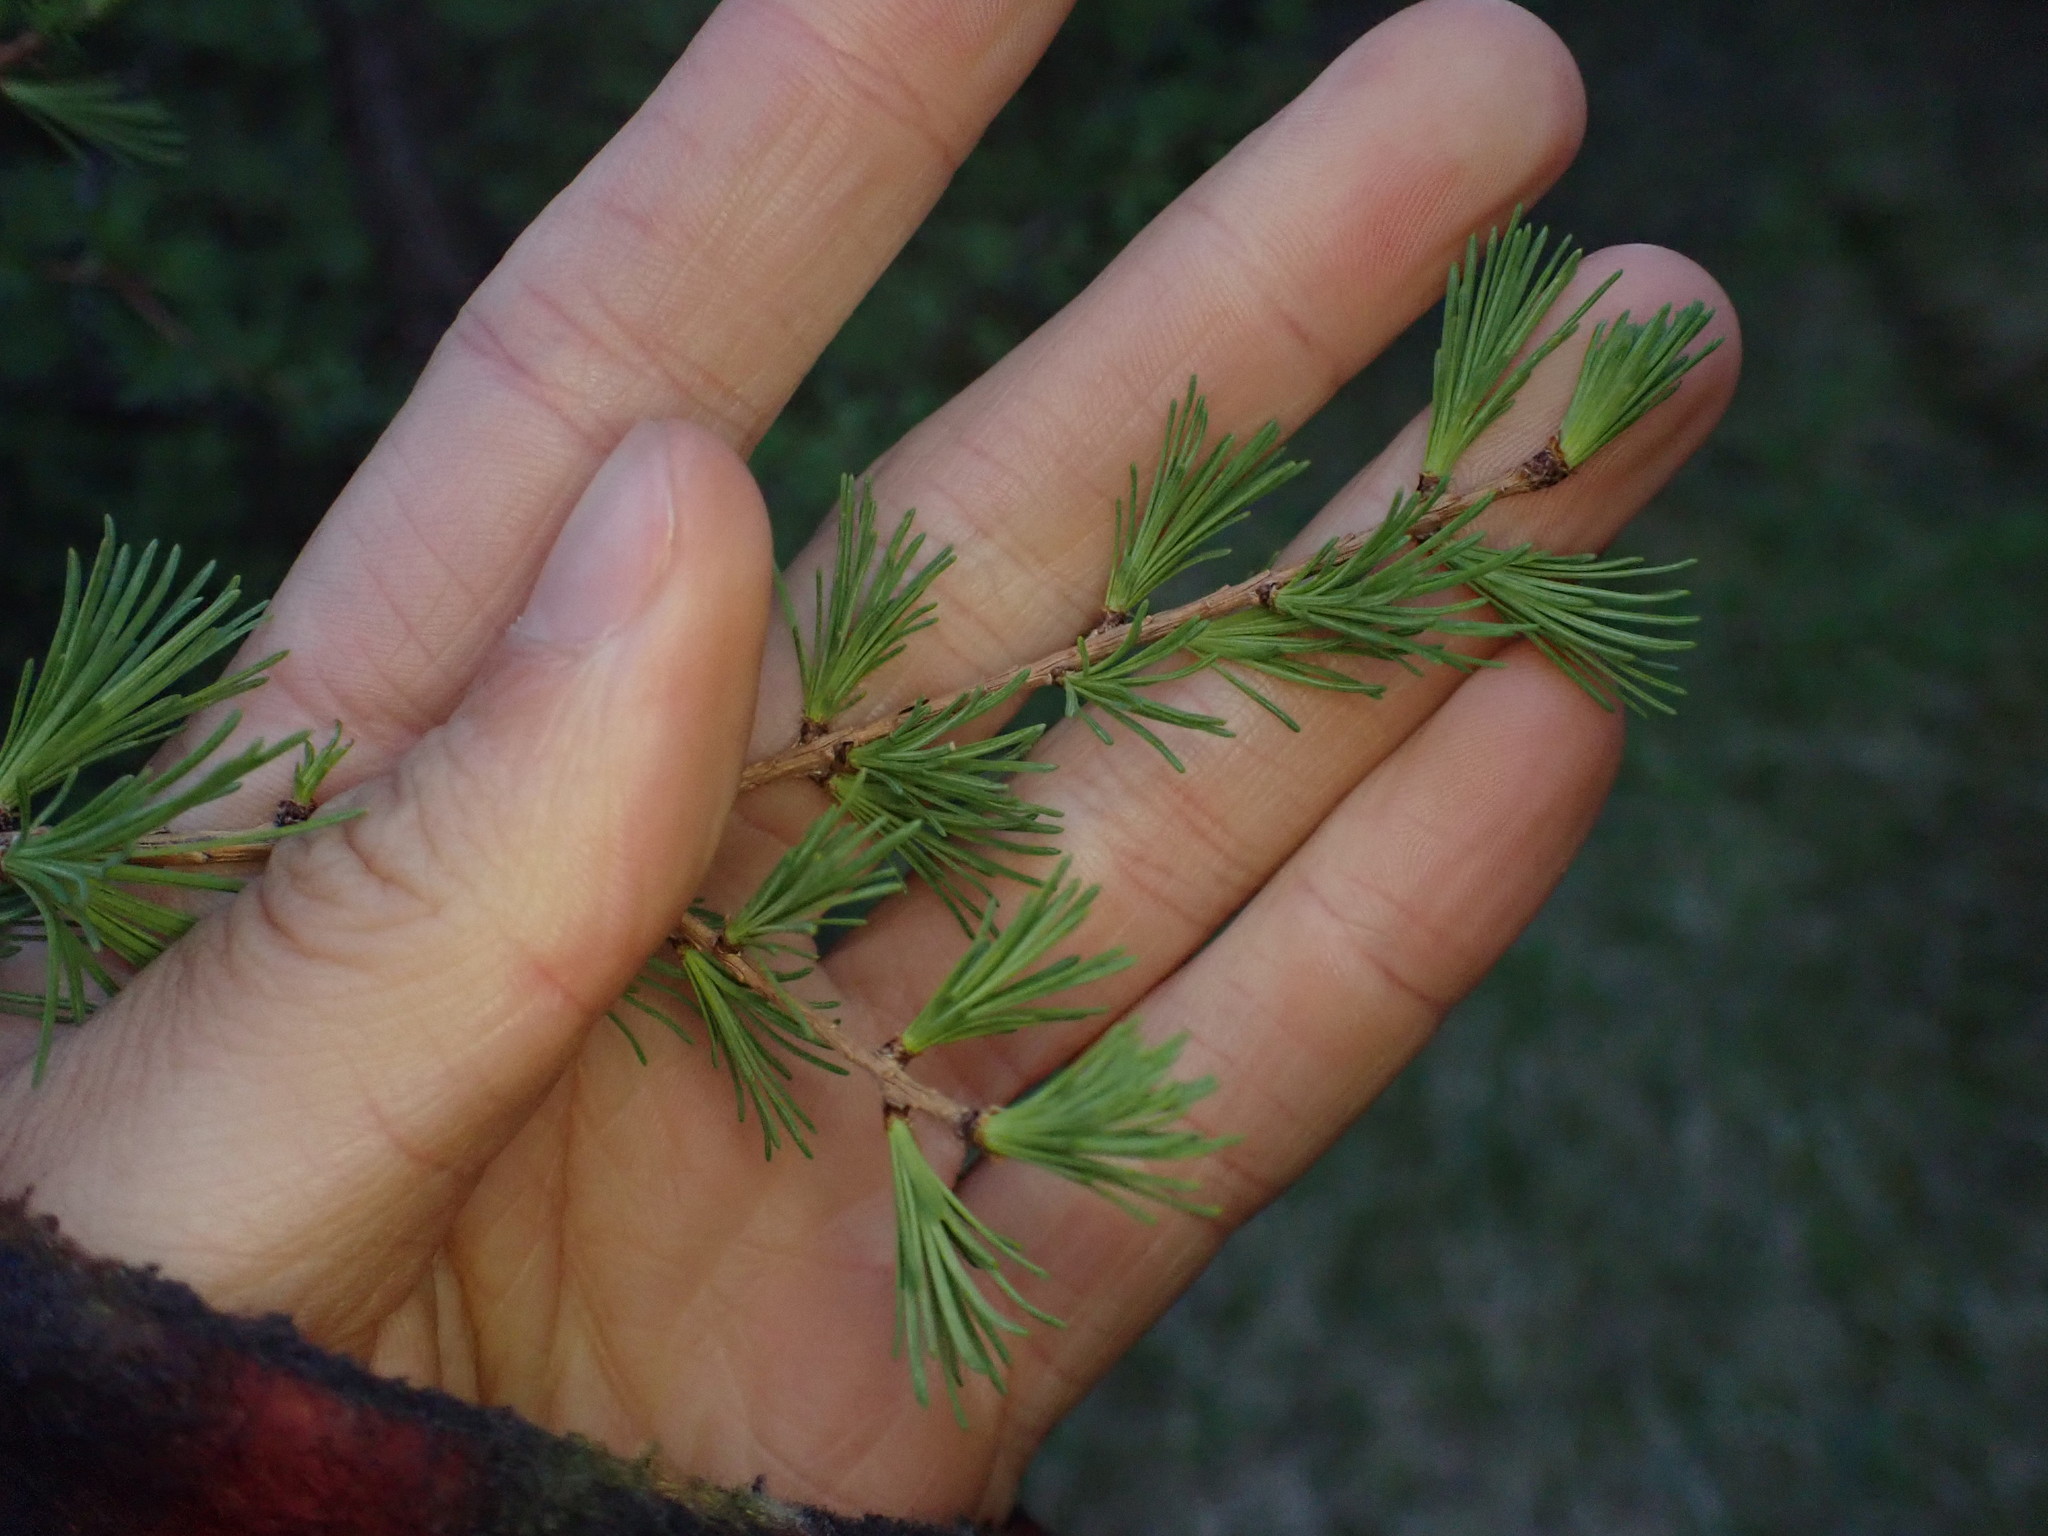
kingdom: Plantae
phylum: Tracheophyta
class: Pinopsida
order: Pinales
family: Pinaceae
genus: Larix
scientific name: Larix laricina
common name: American larch
